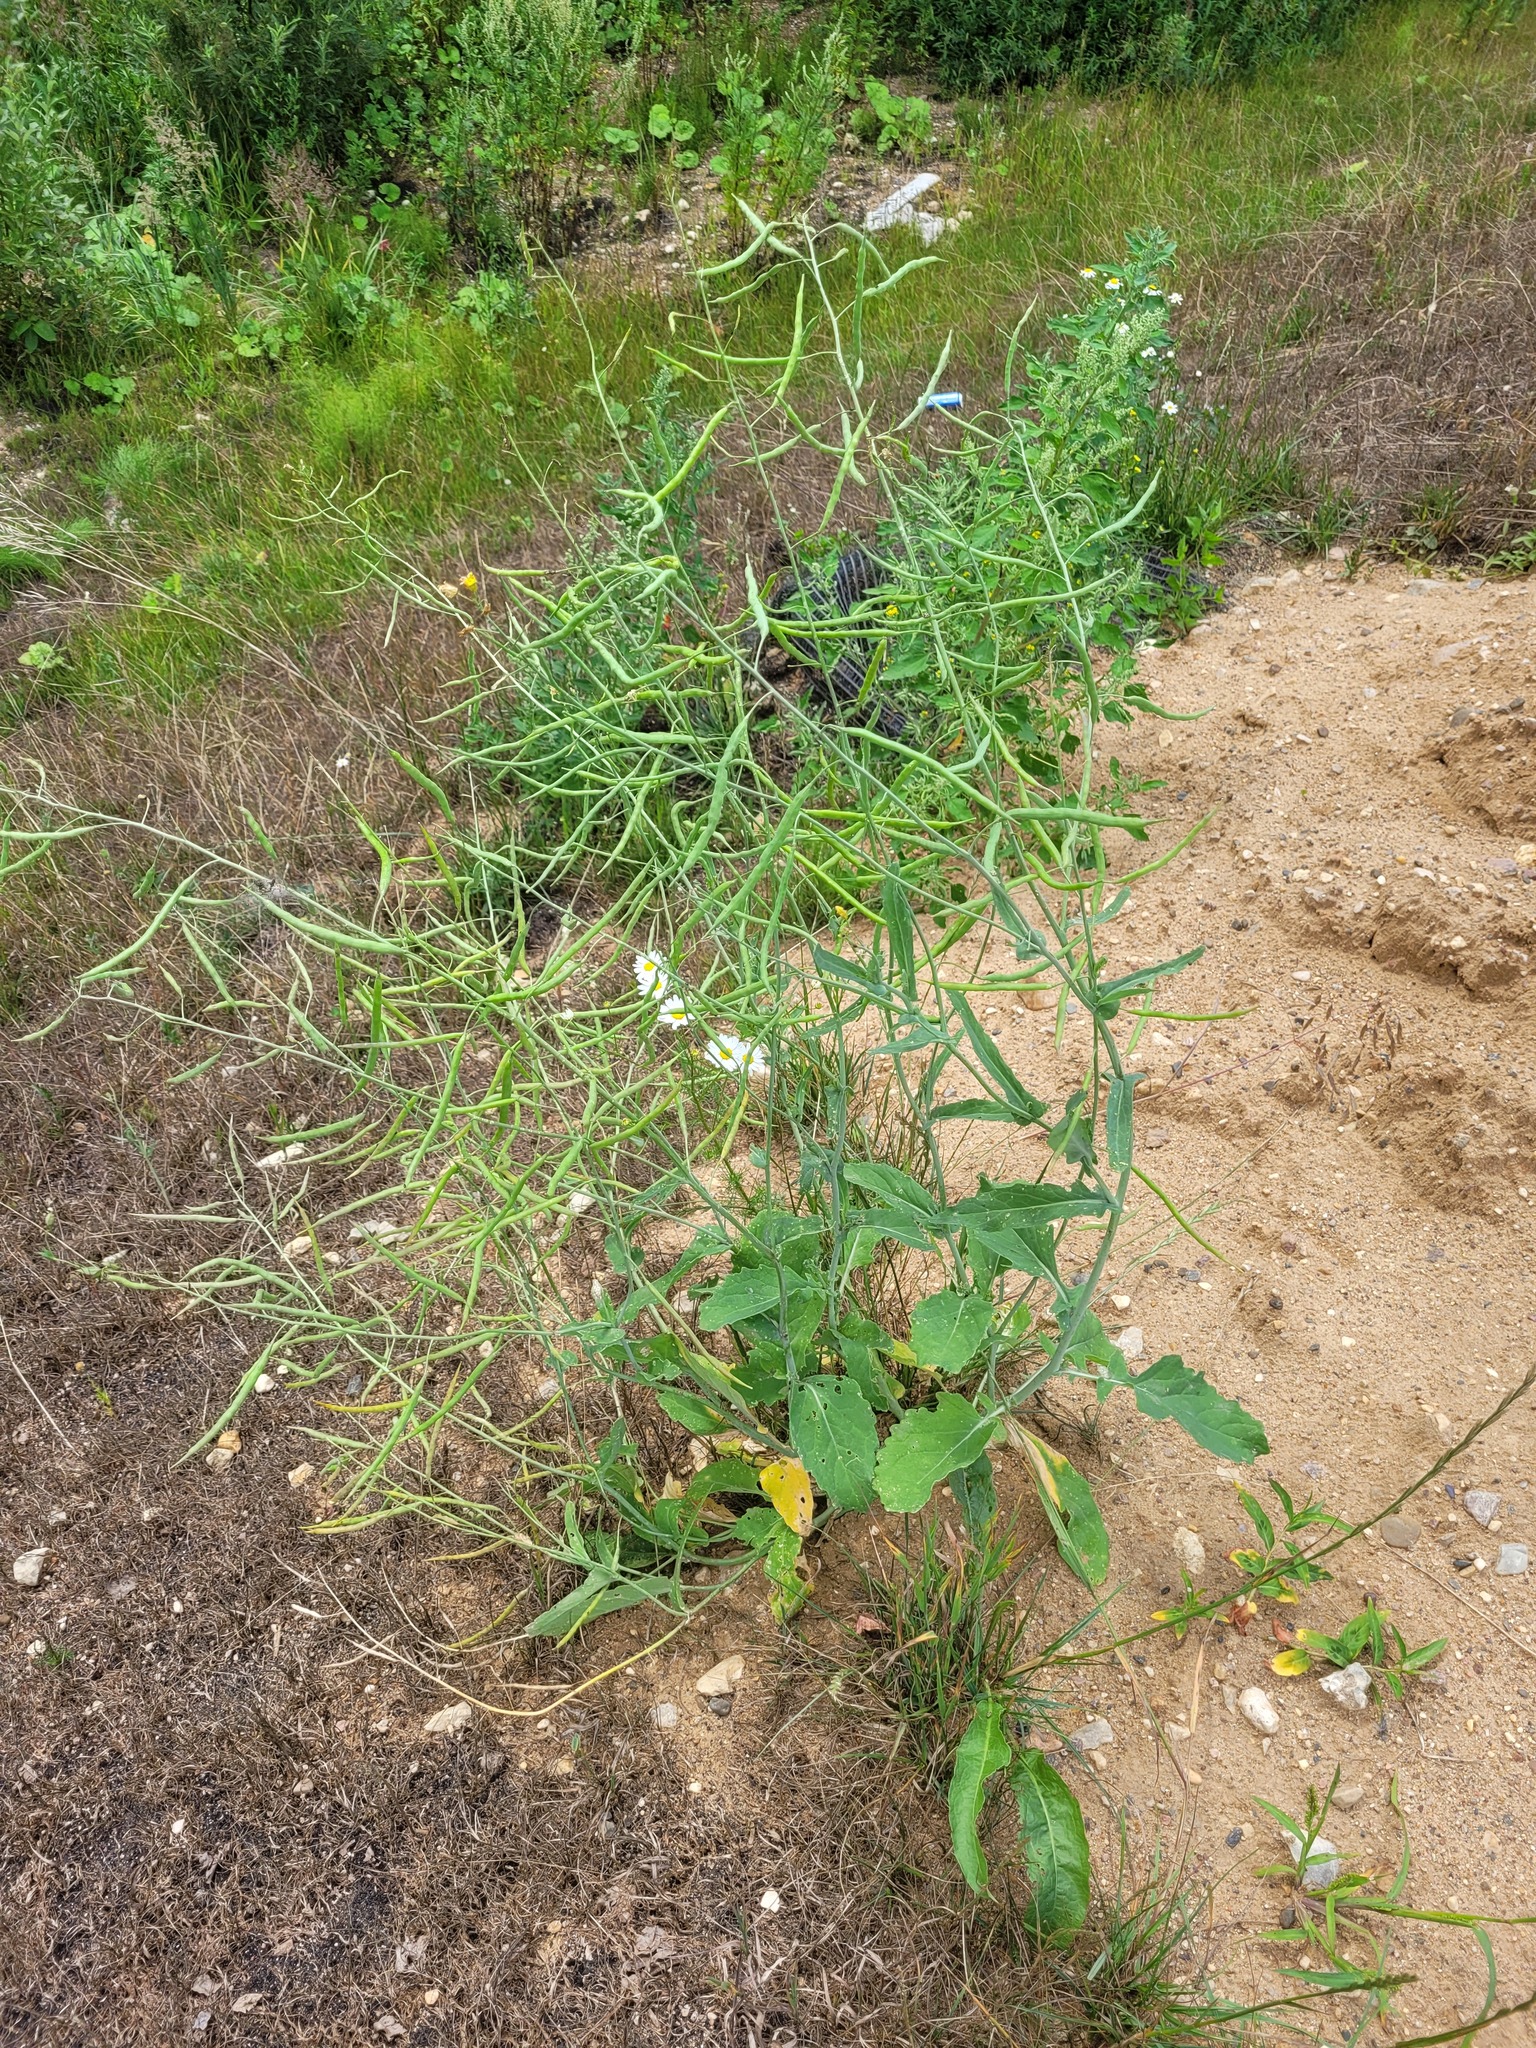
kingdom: Plantae
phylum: Tracheophyta
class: Magnoliopsida
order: Brassicales
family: Brassicaceae
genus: Brassica
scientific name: Brassica napus
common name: Rape
